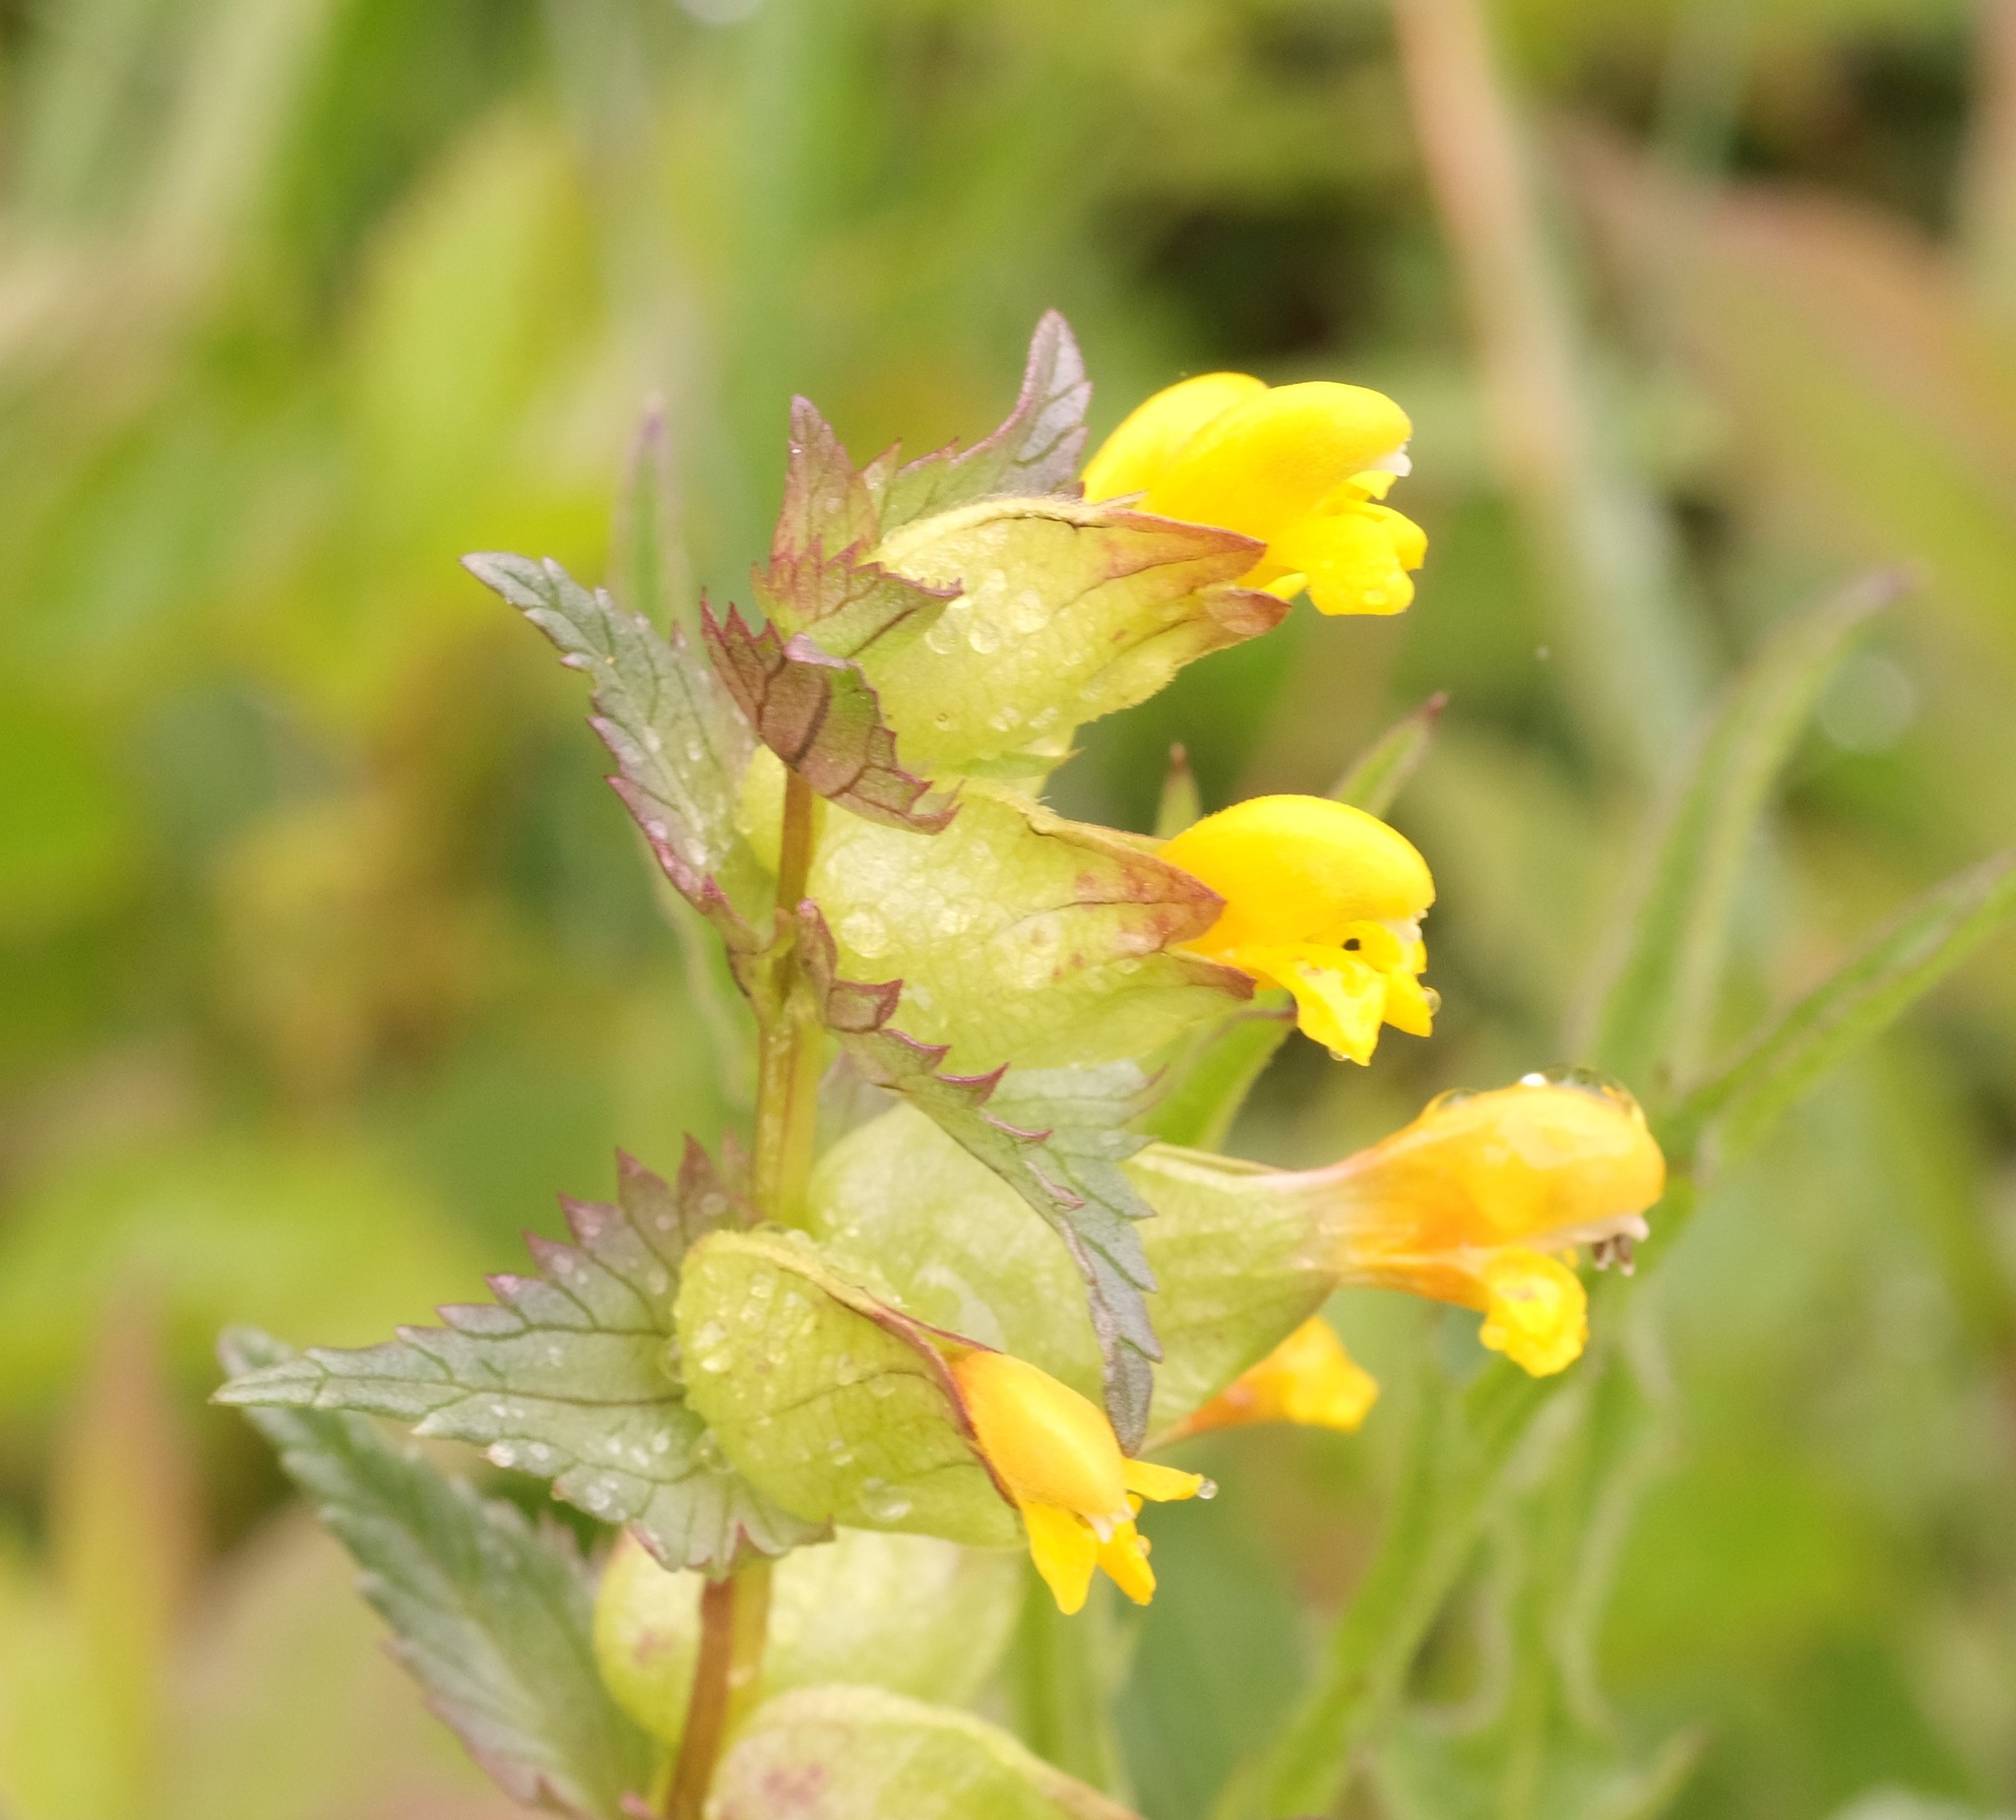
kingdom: Plantae
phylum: Tracheophyta
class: Magnoliopsida
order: Lamiales
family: Orobanchaceae
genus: Rhinanthus
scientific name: Rhinanthus minor
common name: Yellow-rattle
